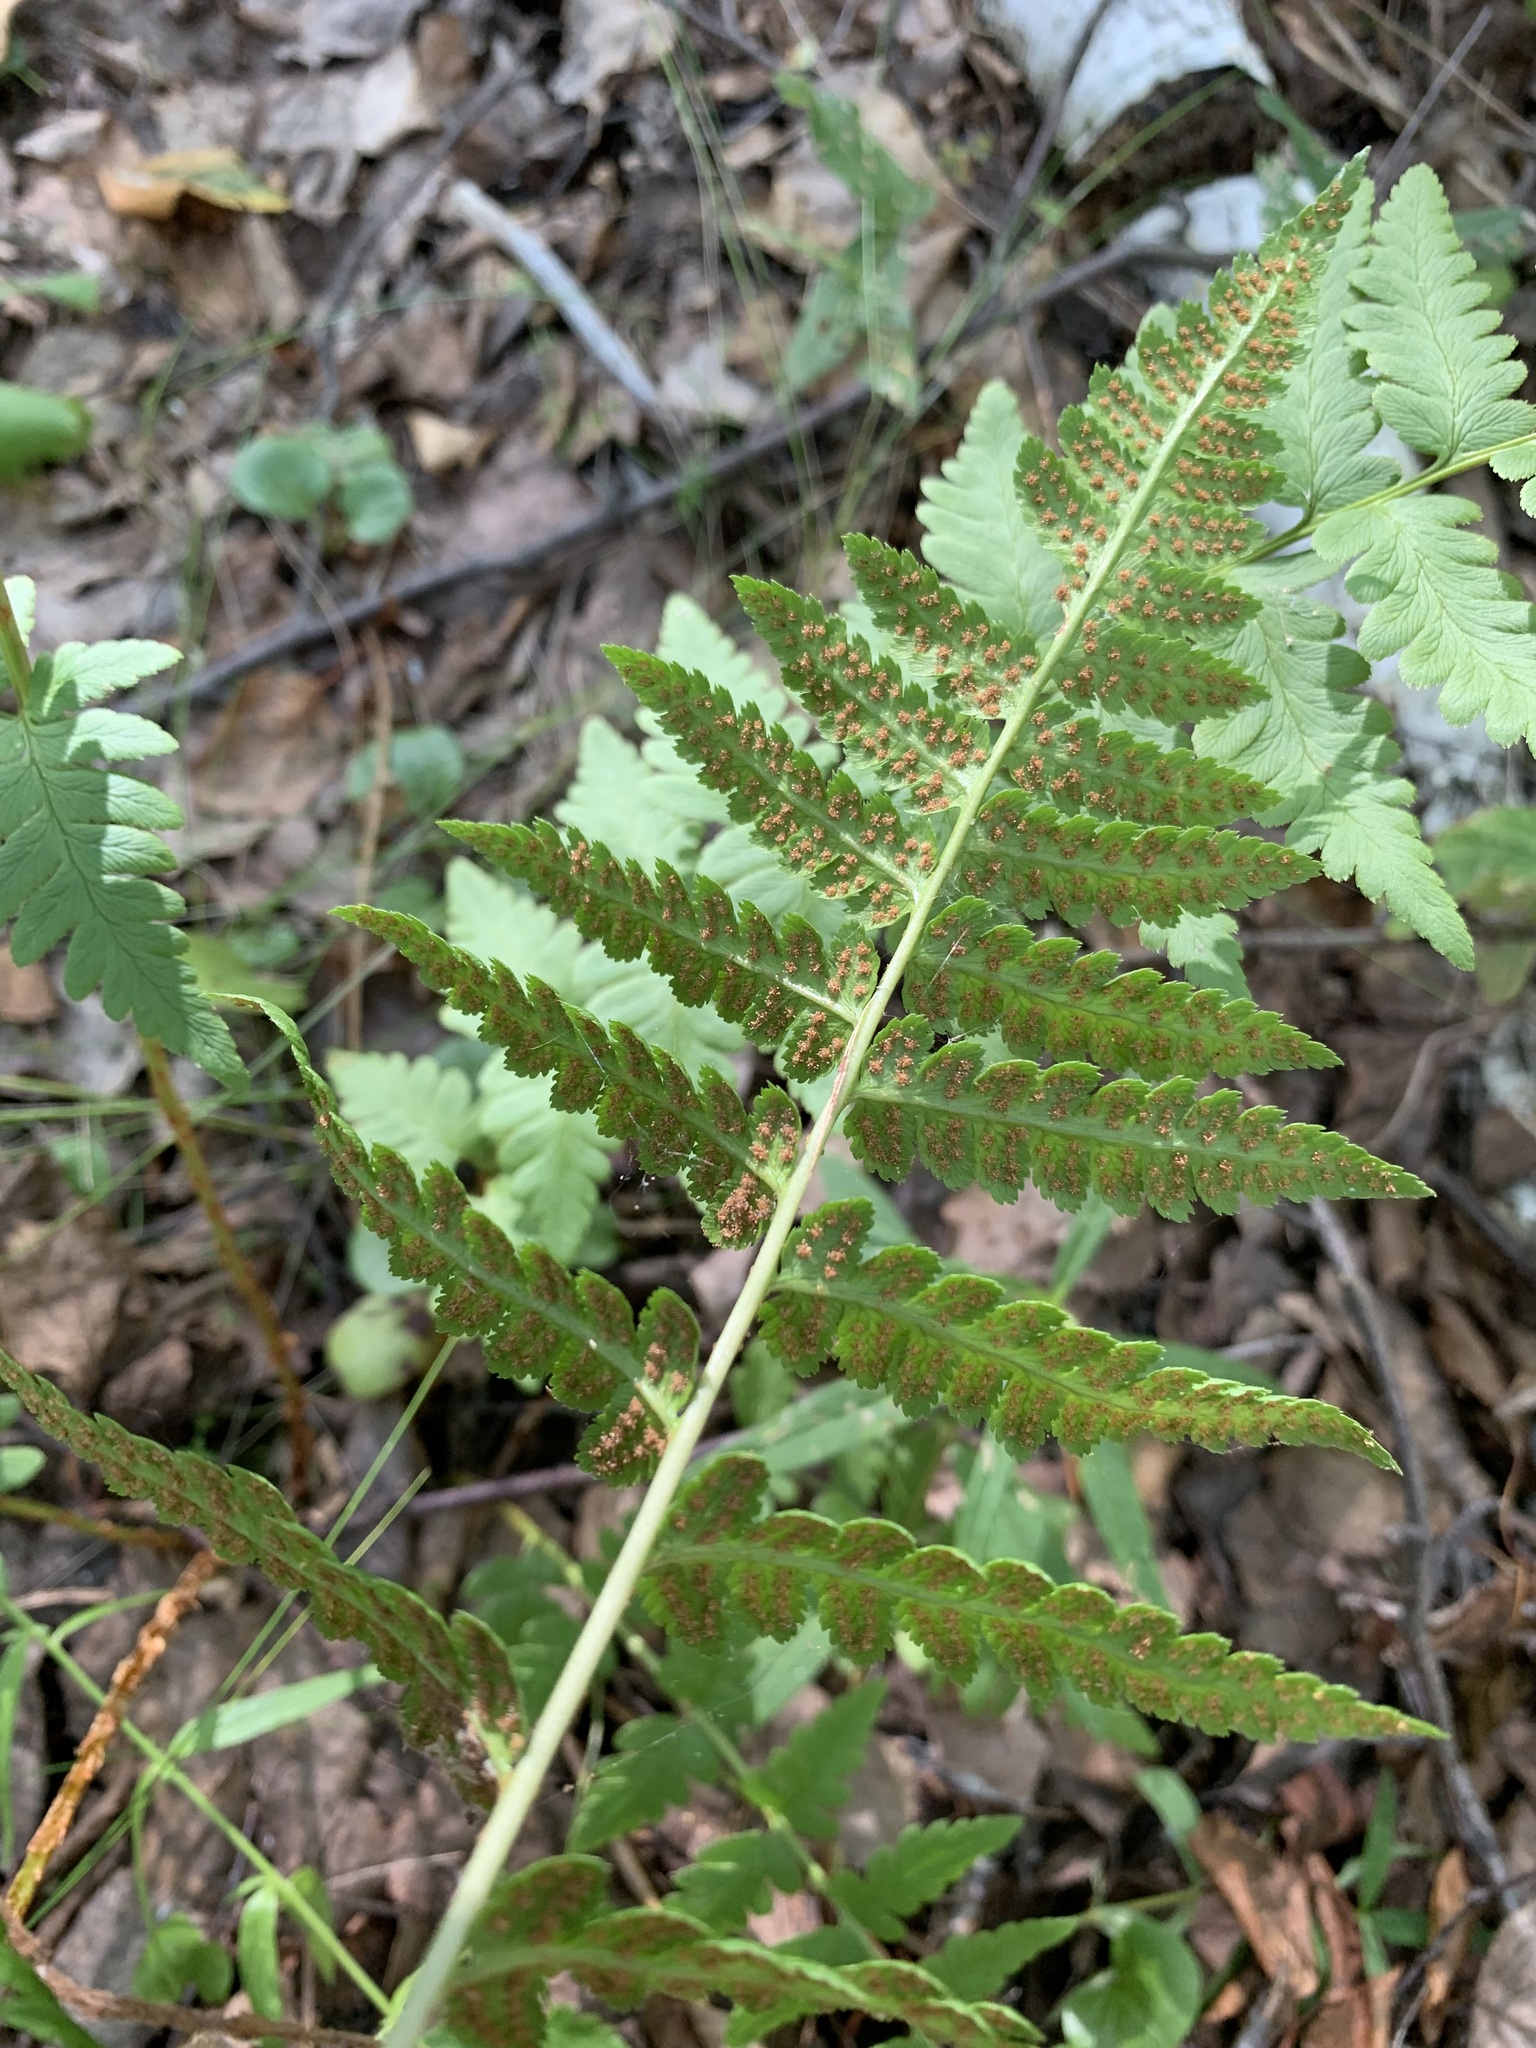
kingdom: Plantae
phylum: Tracheophyta
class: Polypodiopsida
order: Polypodiales
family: Dryopteridaceae
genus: Dryopteris
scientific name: Dryopteris cristata
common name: Crested wood fern
